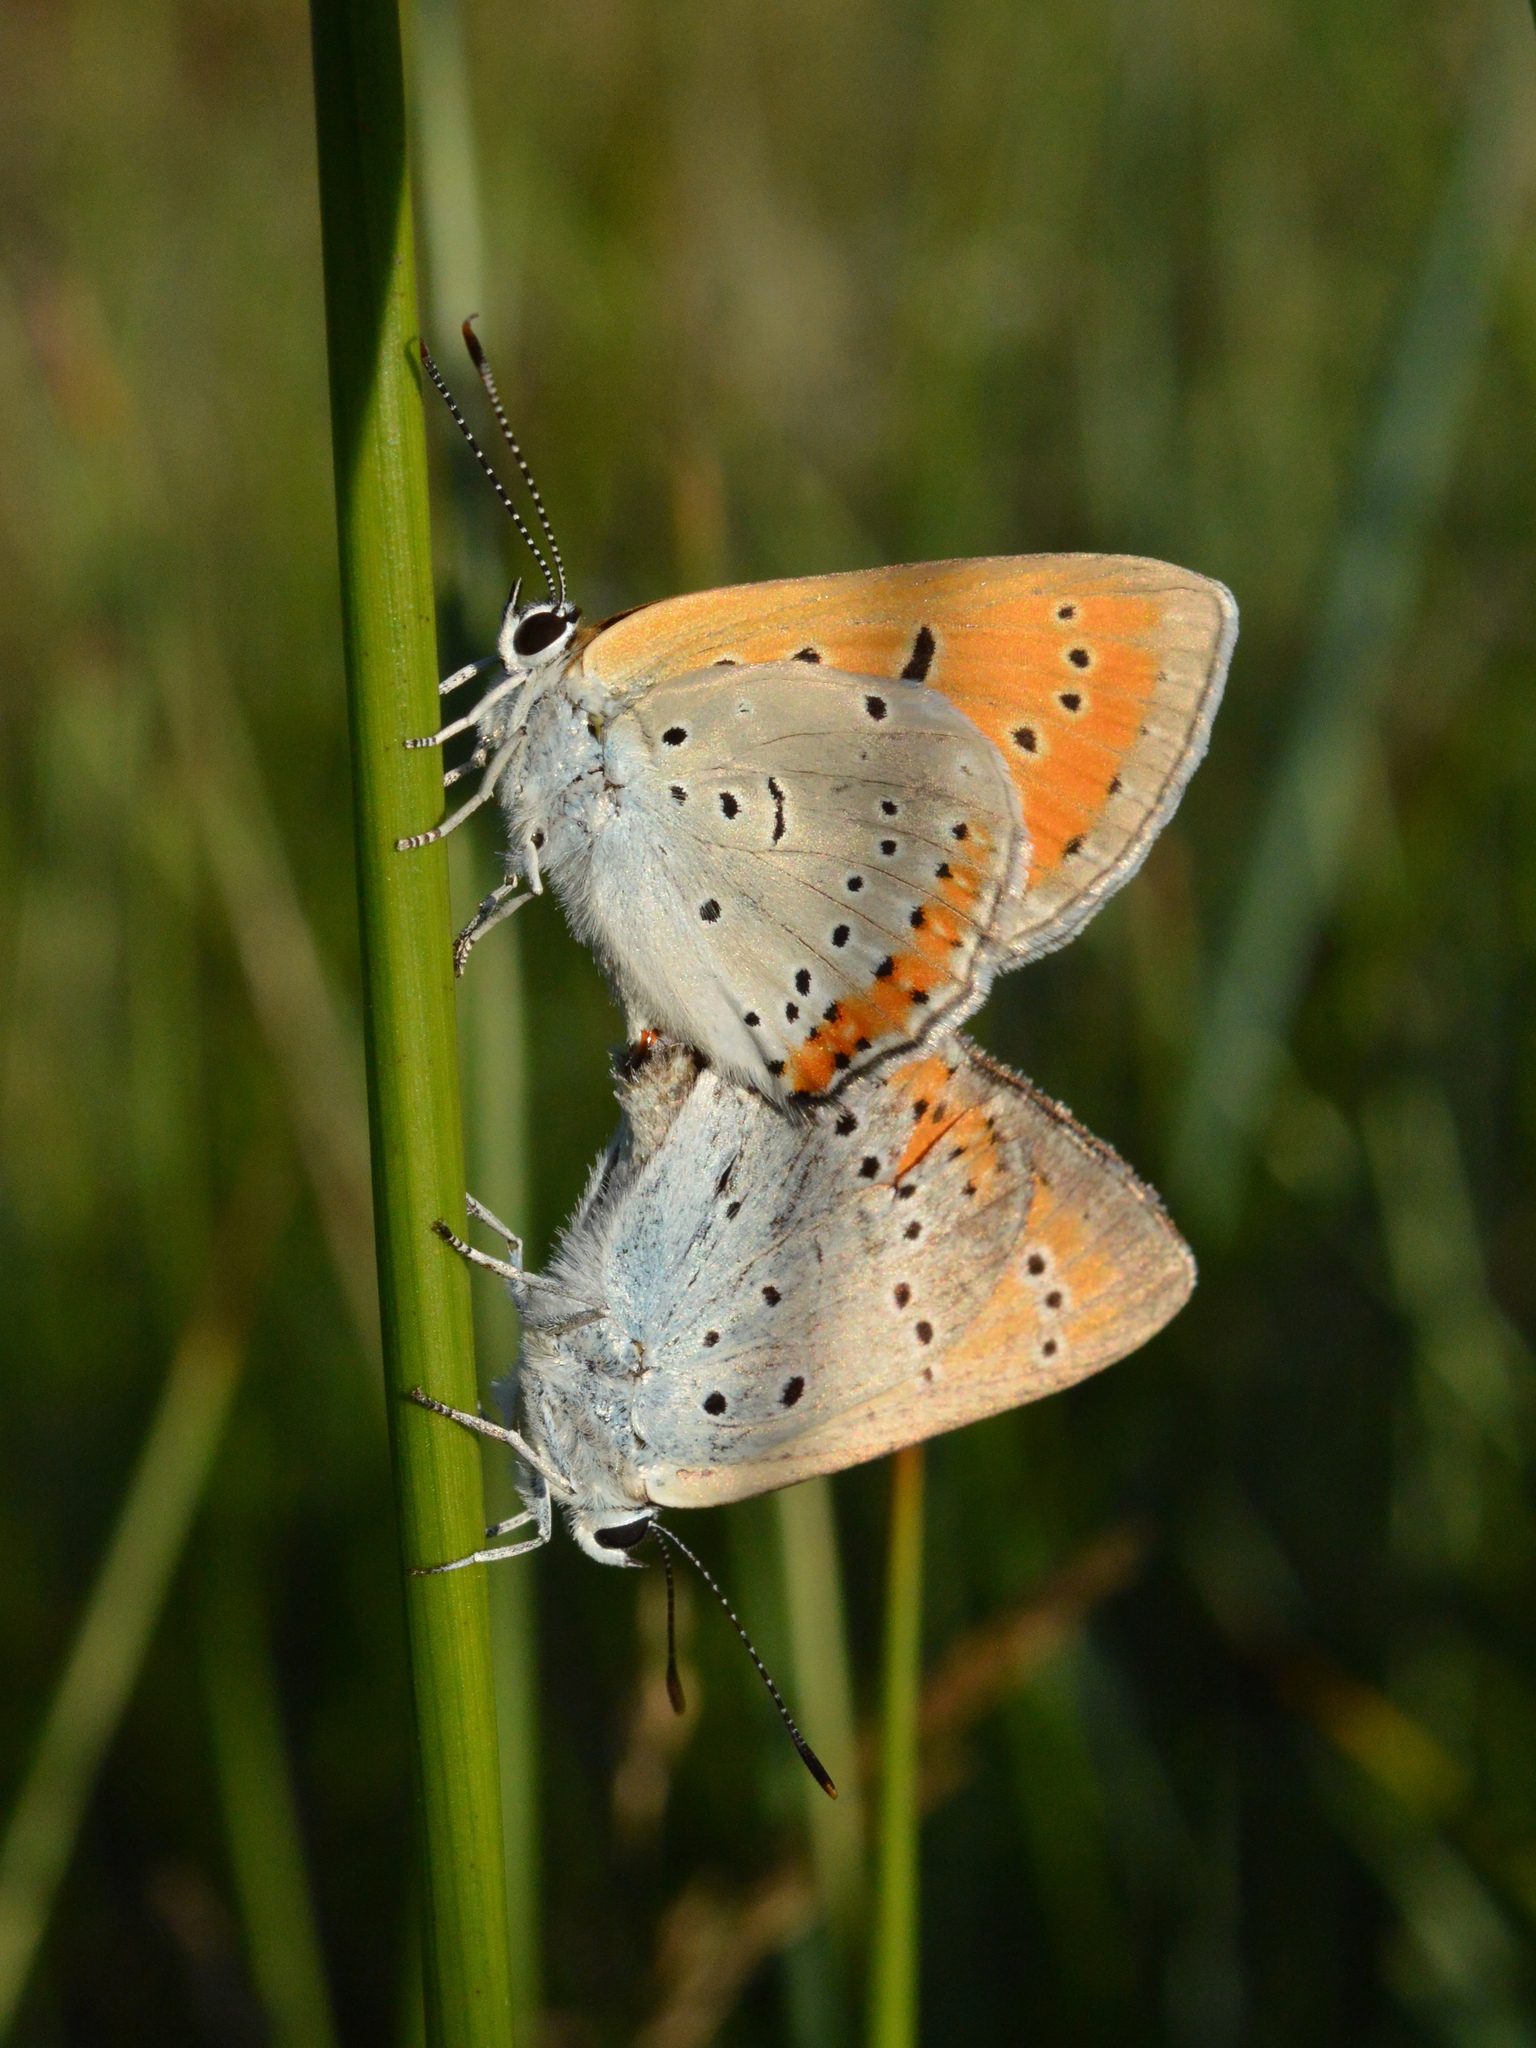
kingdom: Animalia
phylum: Arthropoda
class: Insecta
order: Lepidoptera
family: Lycaenidae
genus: Lycaena
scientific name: Lycaena dispar
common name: Large copper
